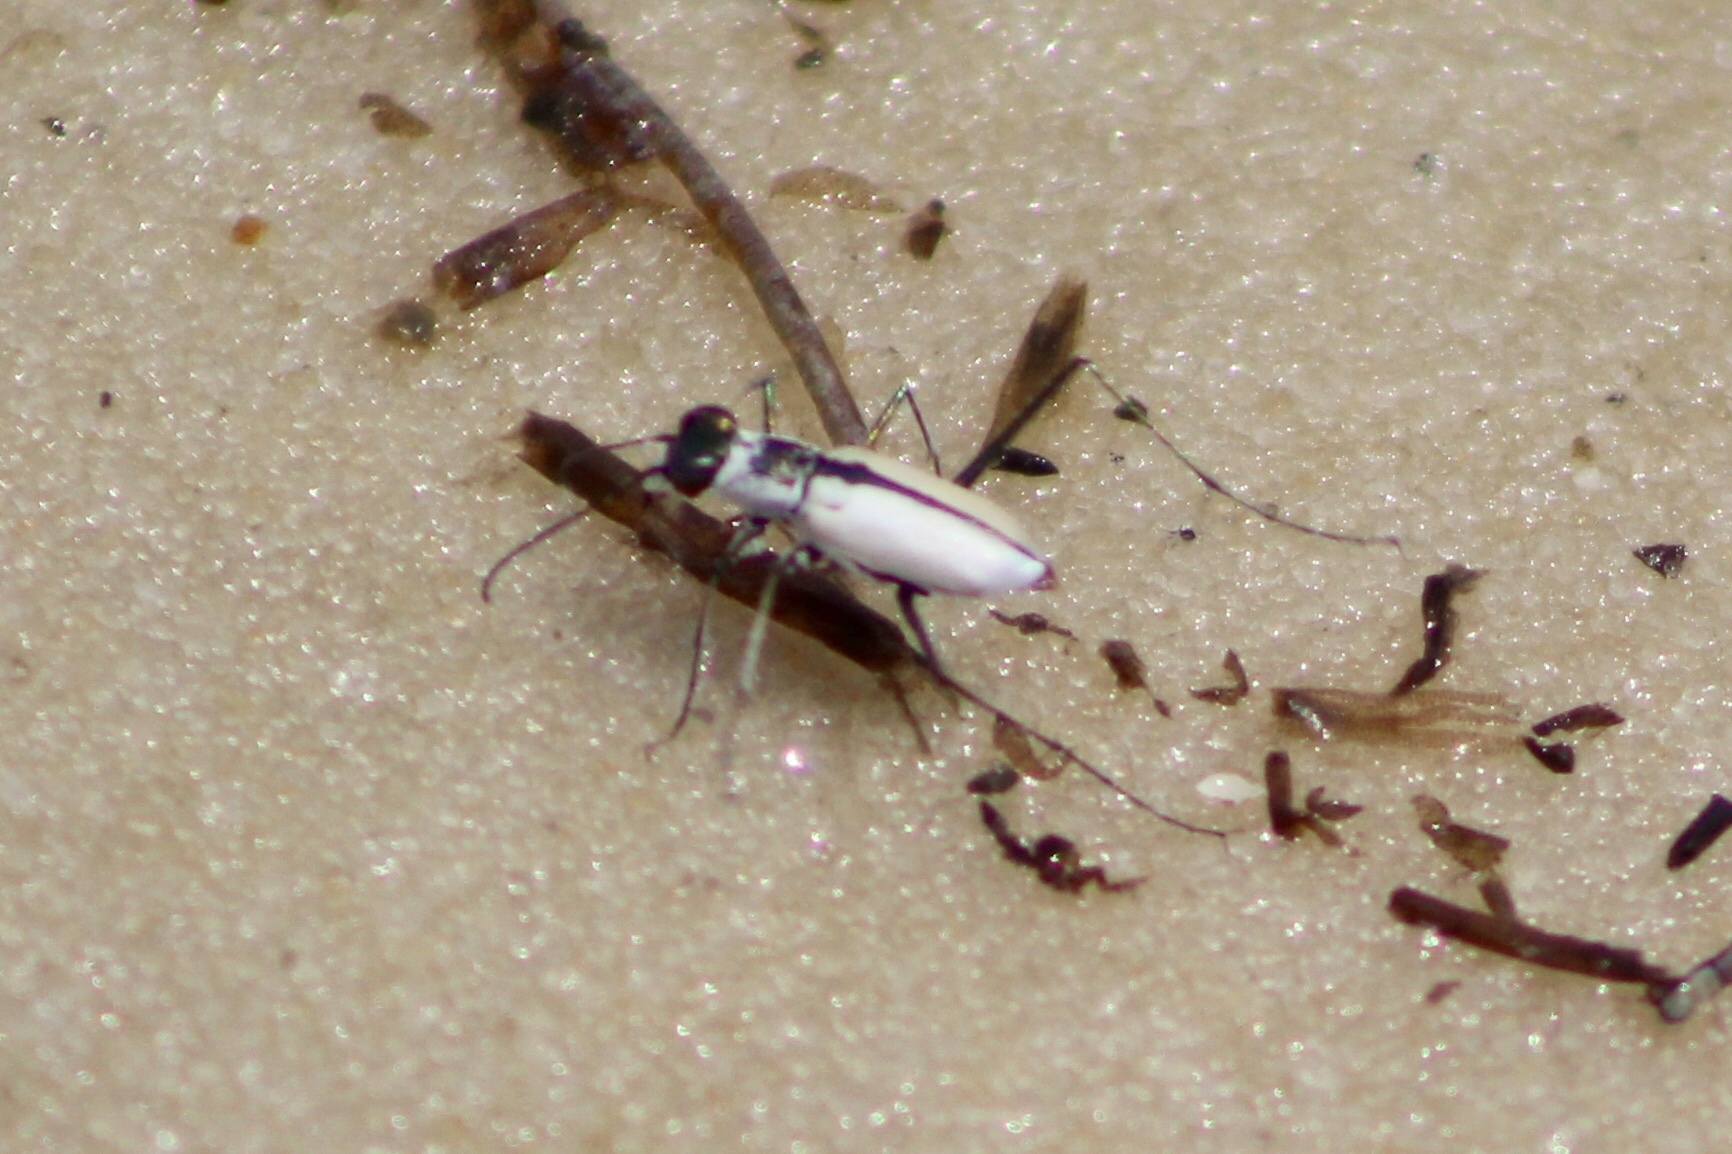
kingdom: Animalia
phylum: Arthropoda
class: Insecta
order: Coleoptera
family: Carabidae
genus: Habroscelimorpha
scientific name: Habroscelimorpha dorsalis
